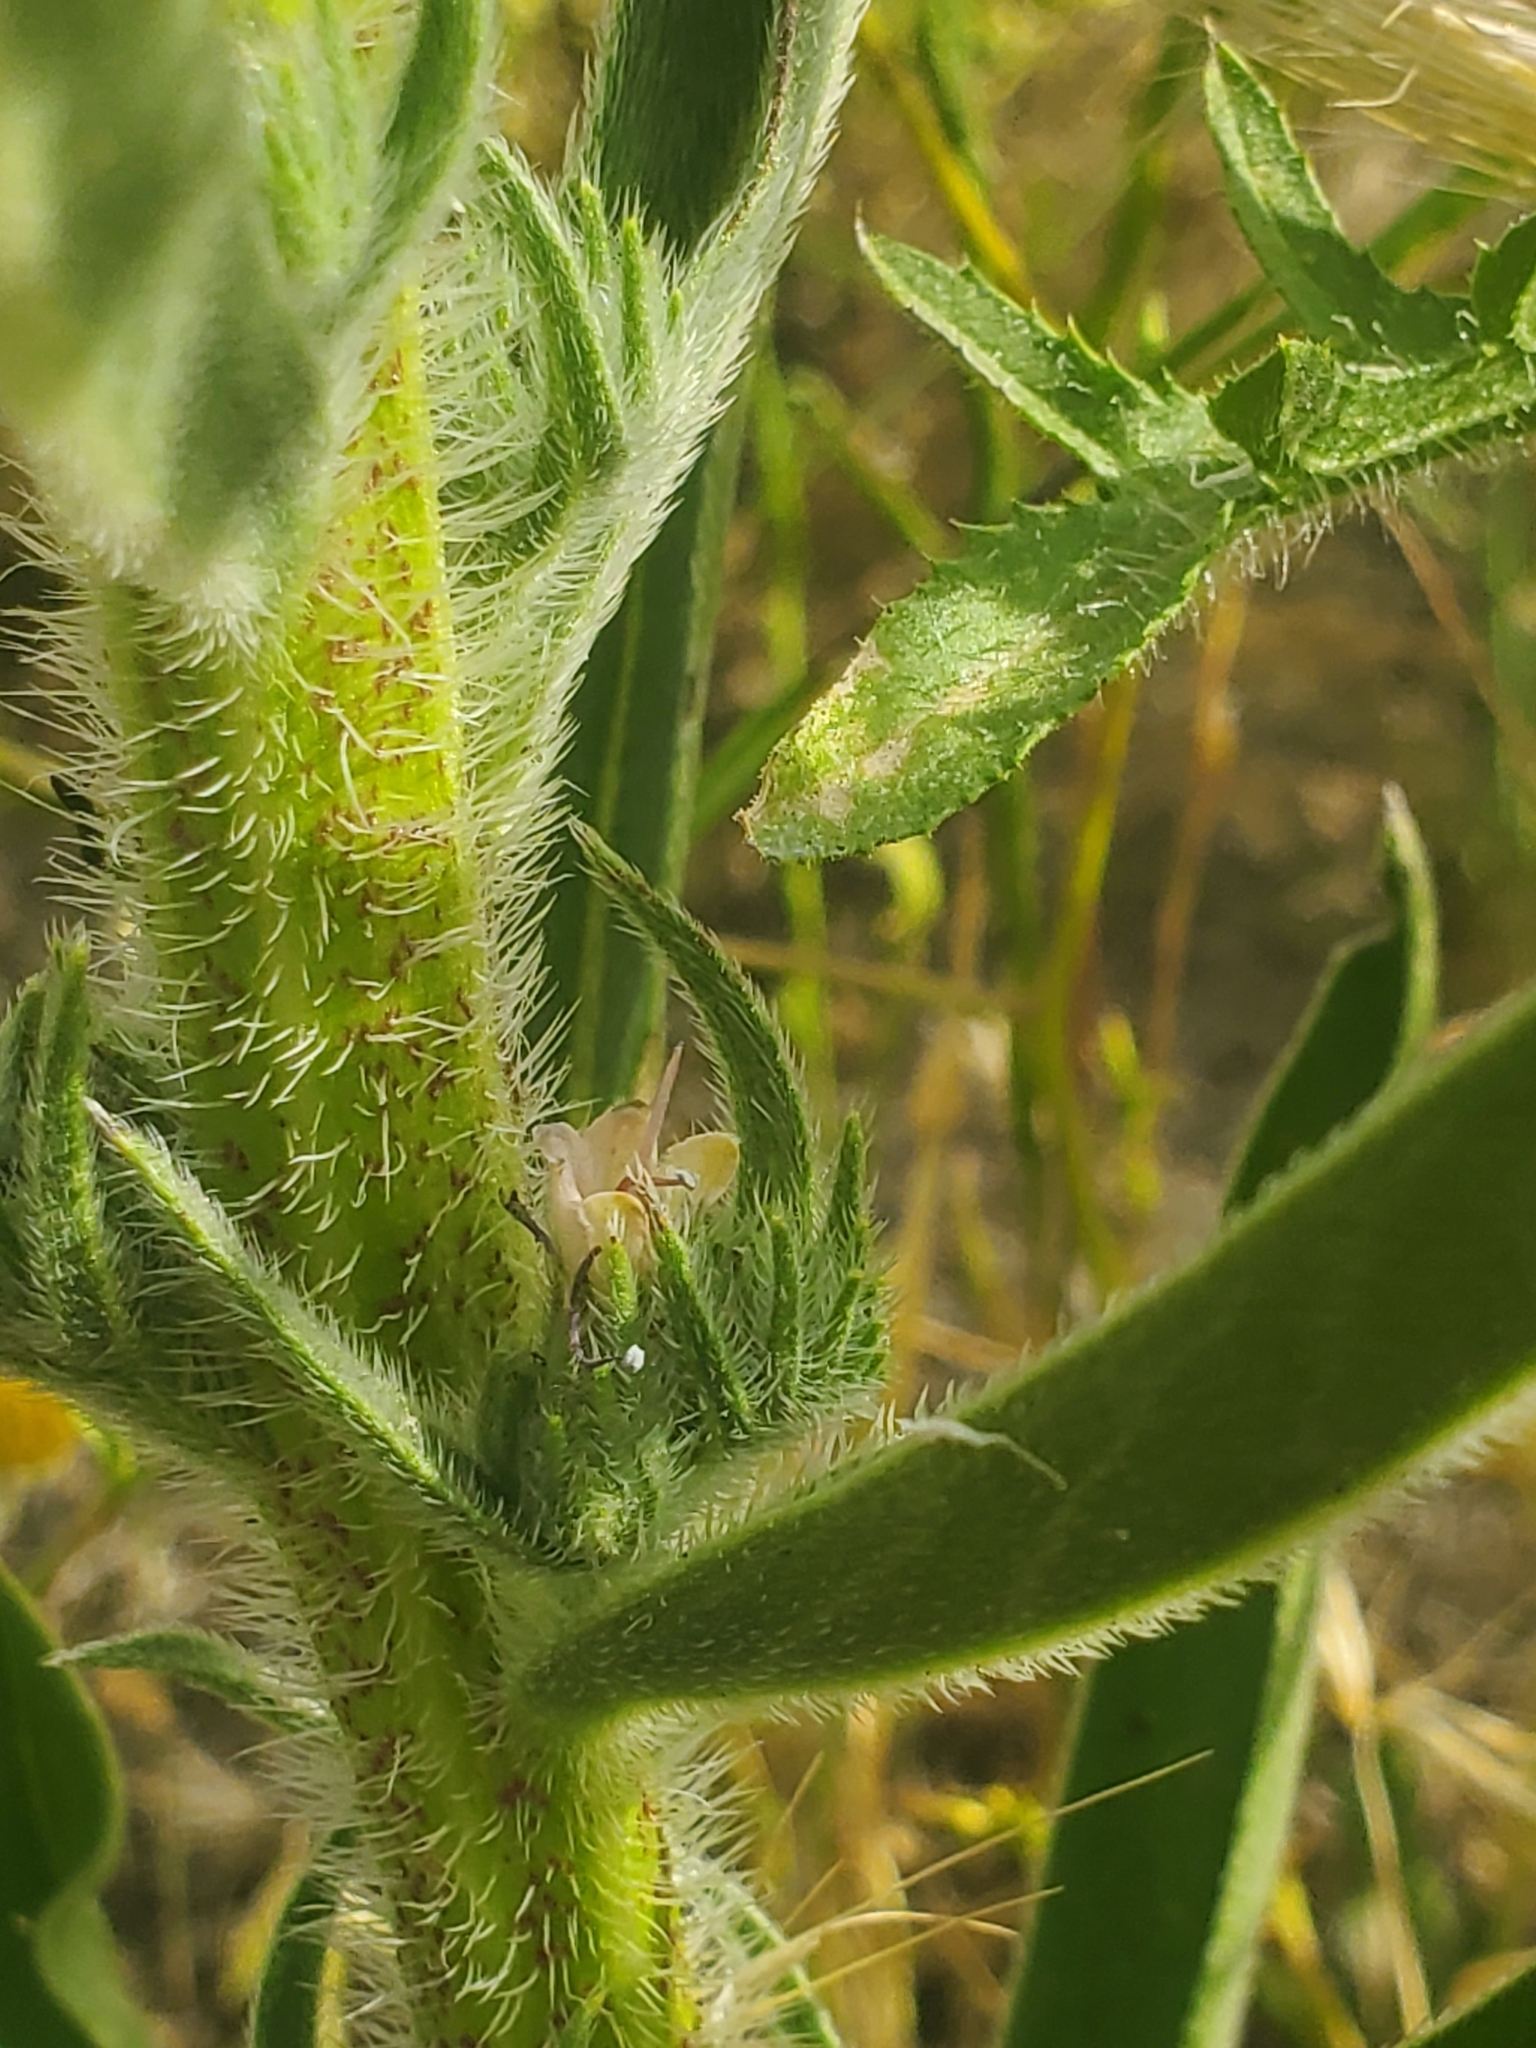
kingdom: Plantae
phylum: Tracheophyta
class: Magnoliopsida
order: Boraginales
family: Boraginaceae
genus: Echium
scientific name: Echium glomeratum
